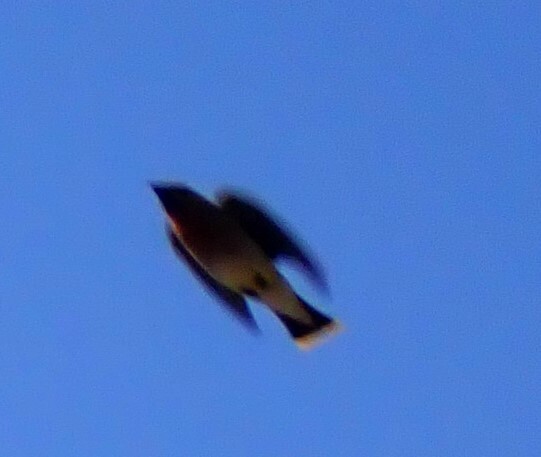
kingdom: Animalia
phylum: Chordata
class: Aves
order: Passeriformes
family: Bombycillidae
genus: Bombycilla
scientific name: Bombycilla cedrorum
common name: Cedar waxwing
